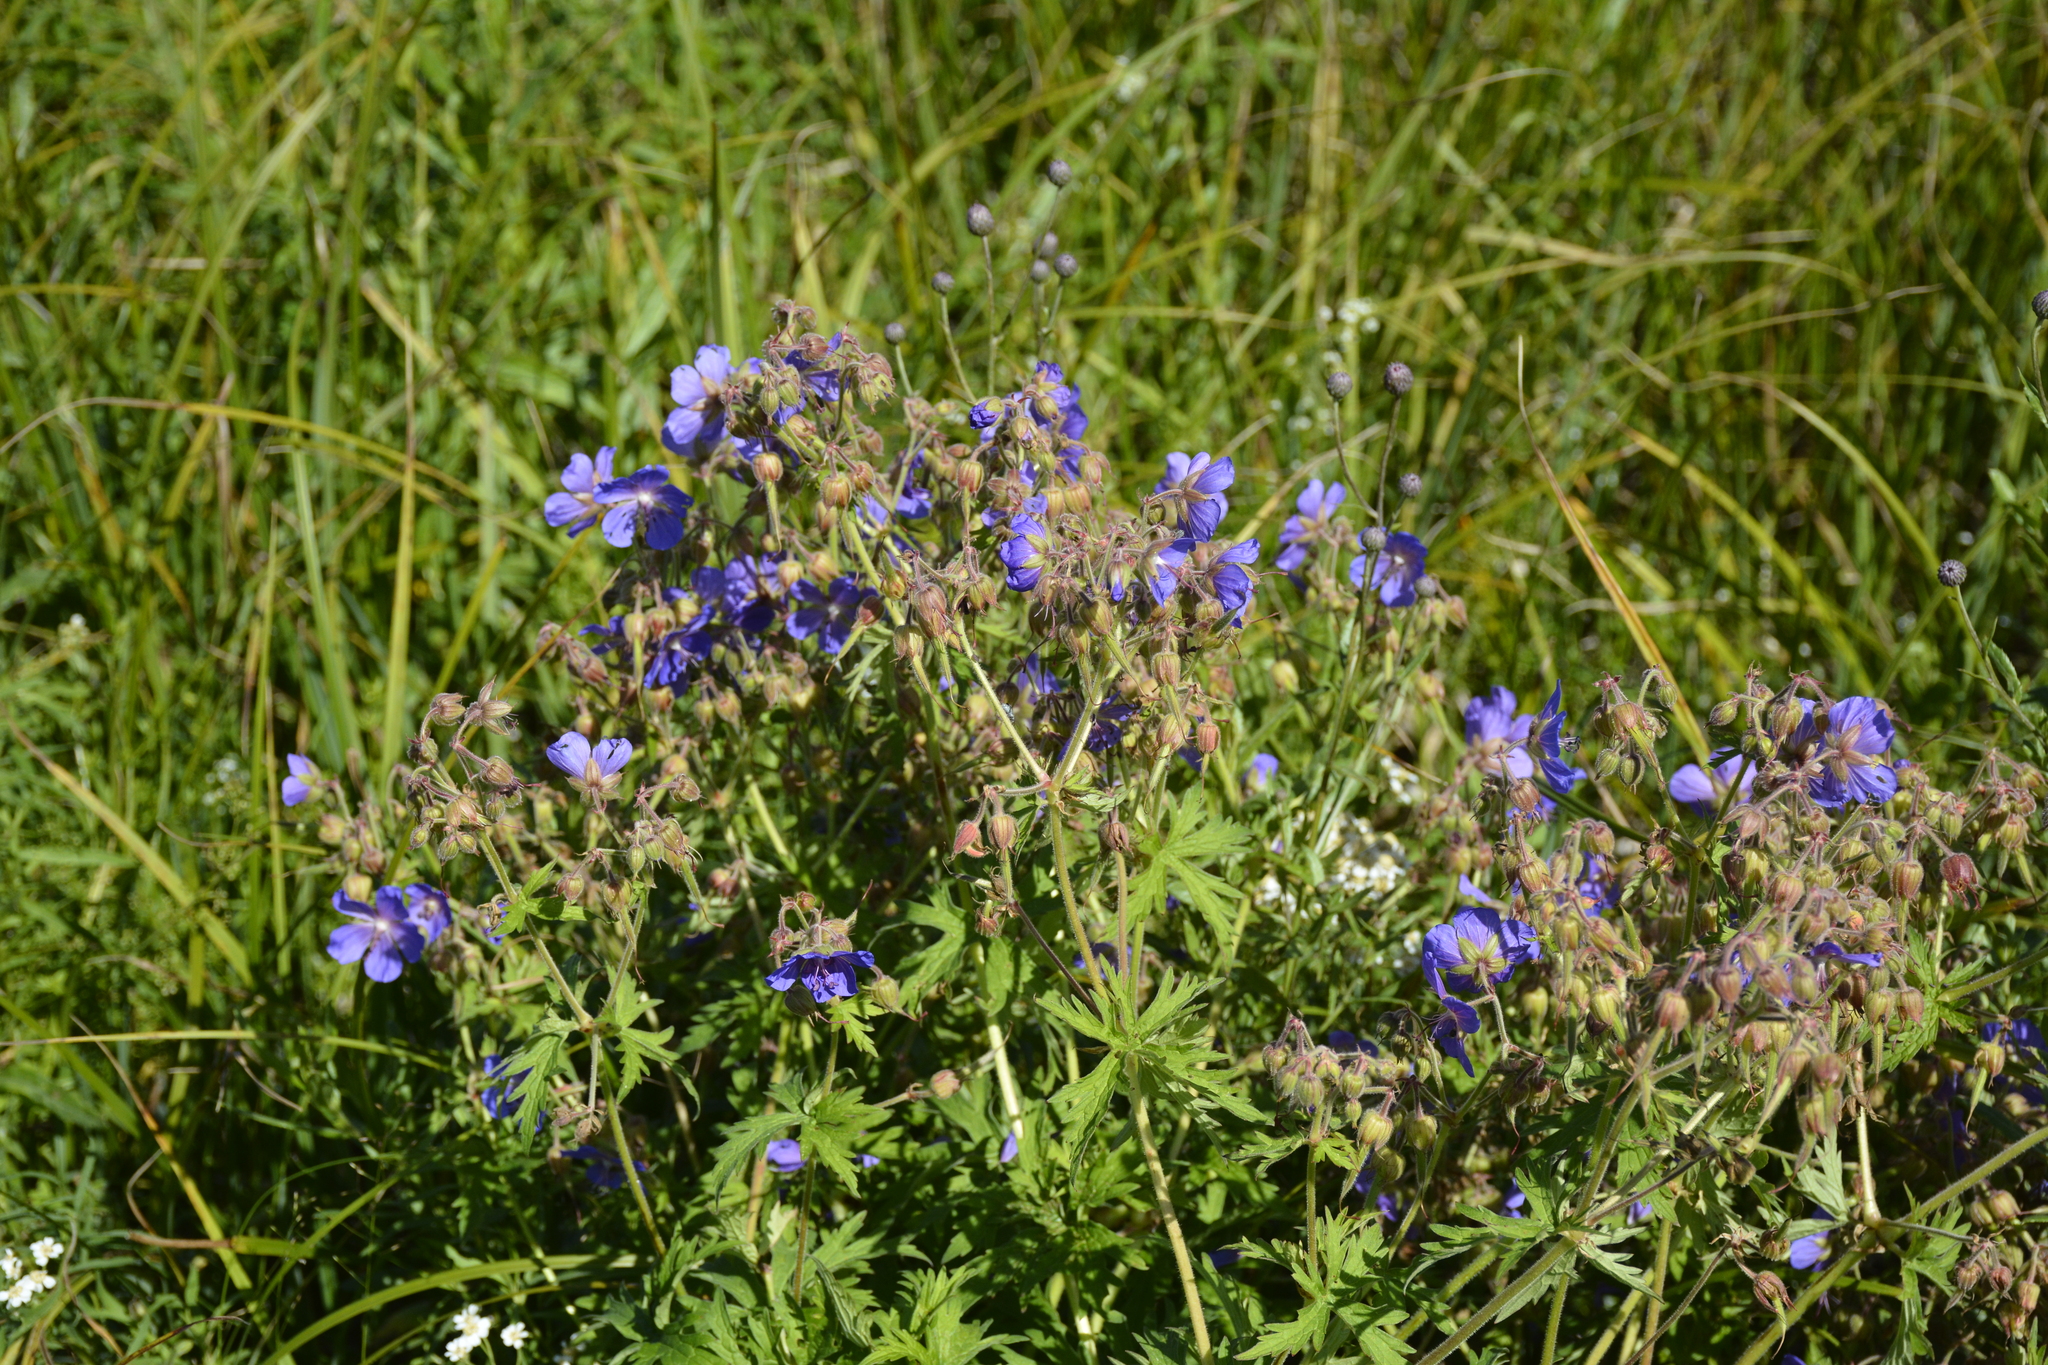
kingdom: Plantae
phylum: Tracheophyta
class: Magnoliopsida
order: Geraniales
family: Geraniaceae
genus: Geranium
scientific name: Geranium pratense
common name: Meadow crane's-bill
